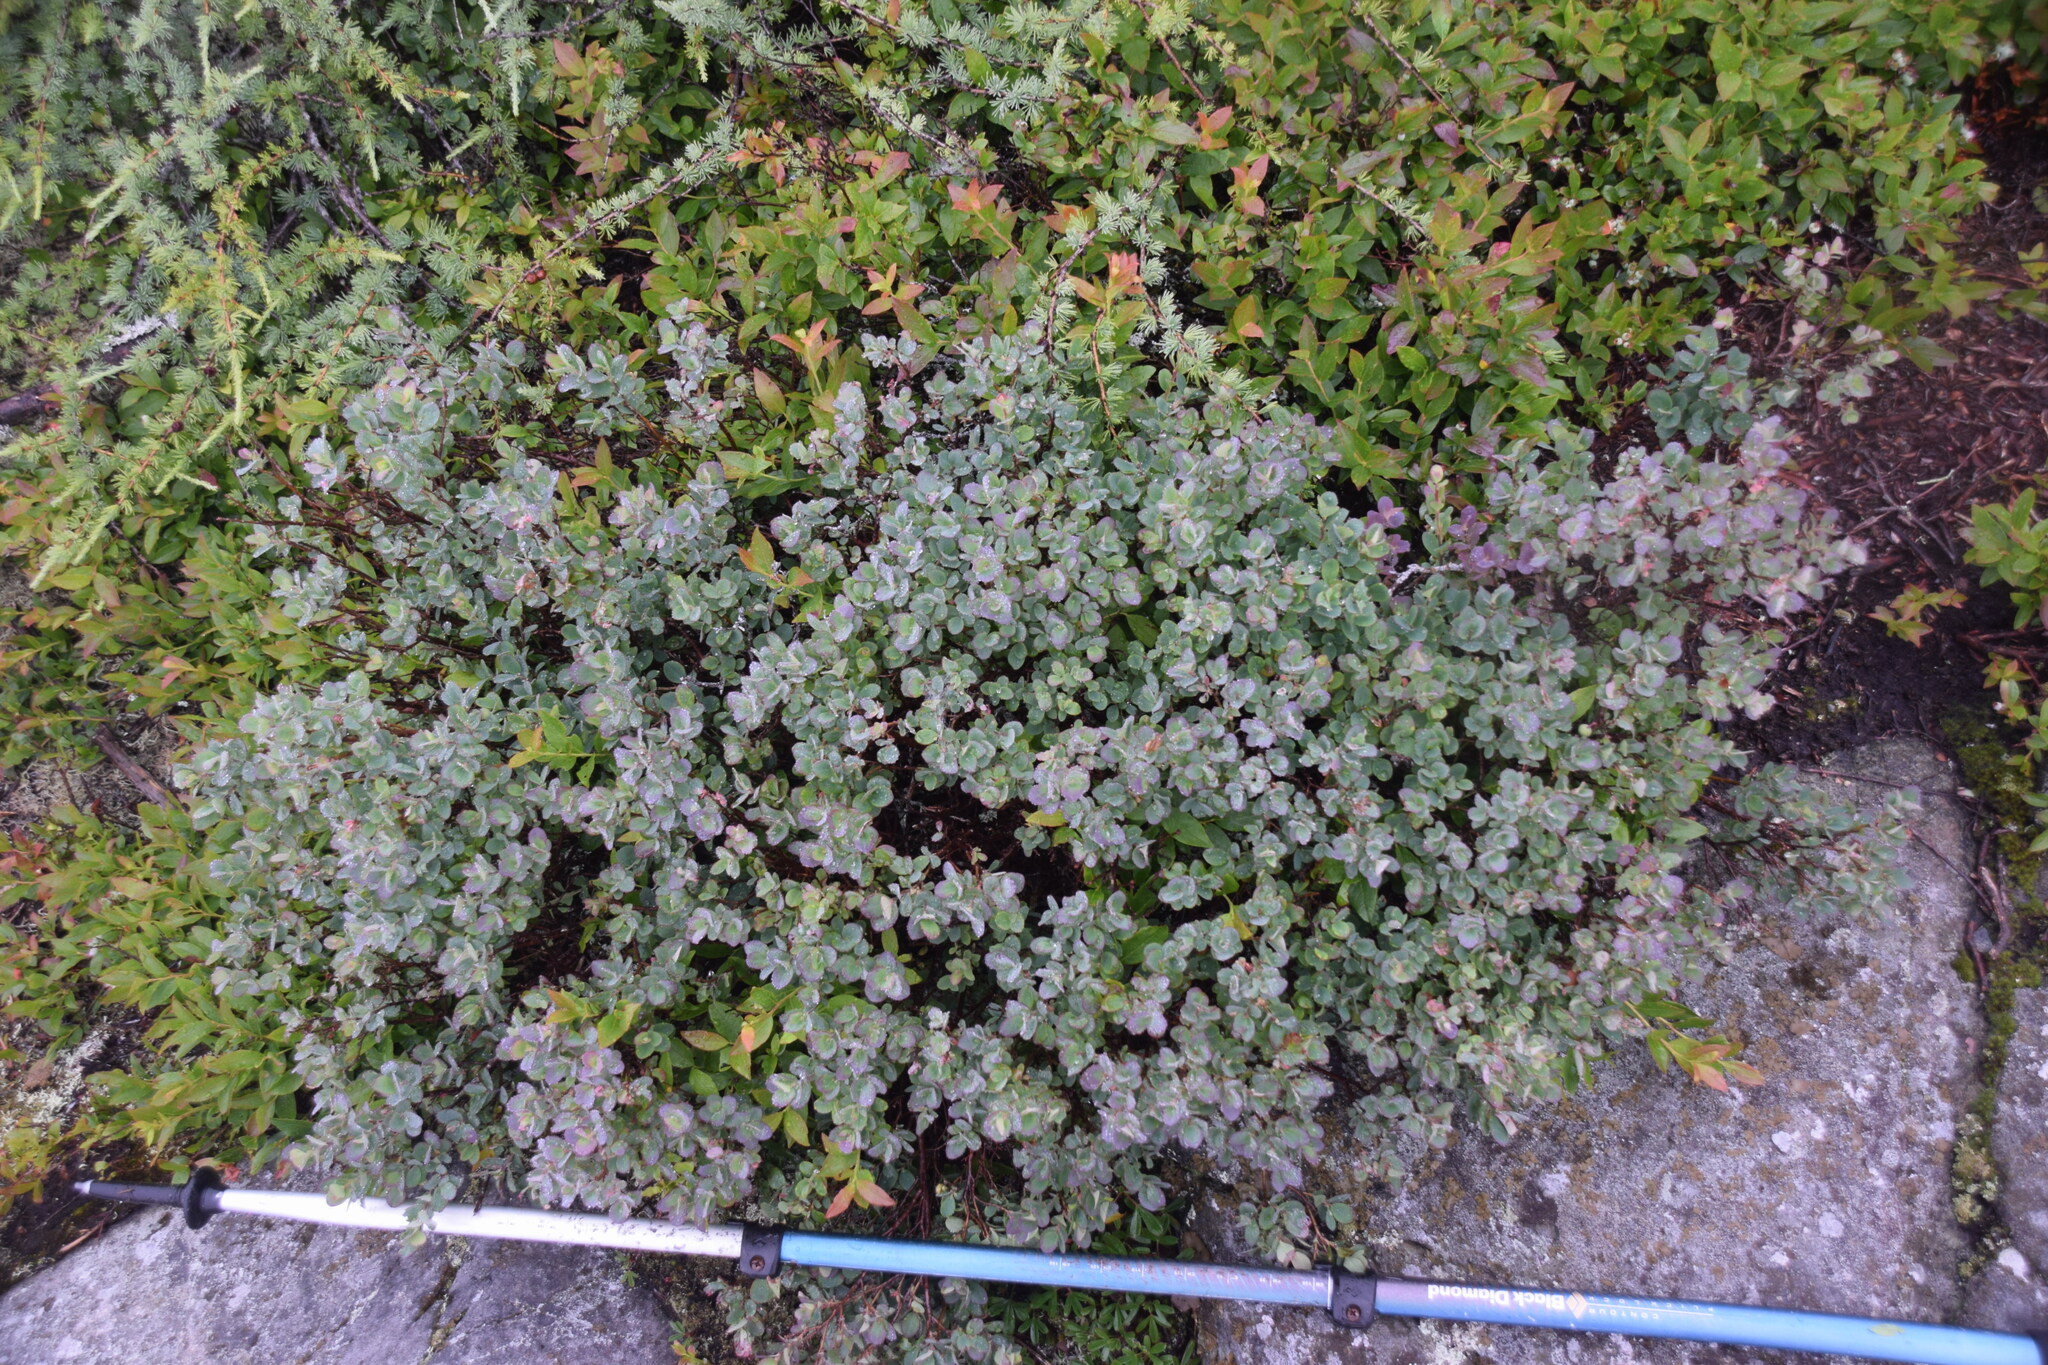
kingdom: Plantae
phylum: Tracheophyta
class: Magnoliopsida
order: Ericales
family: Ericaceae
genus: Vaccinium
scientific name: Vaccinium uliginosum
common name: Bog bilberry
